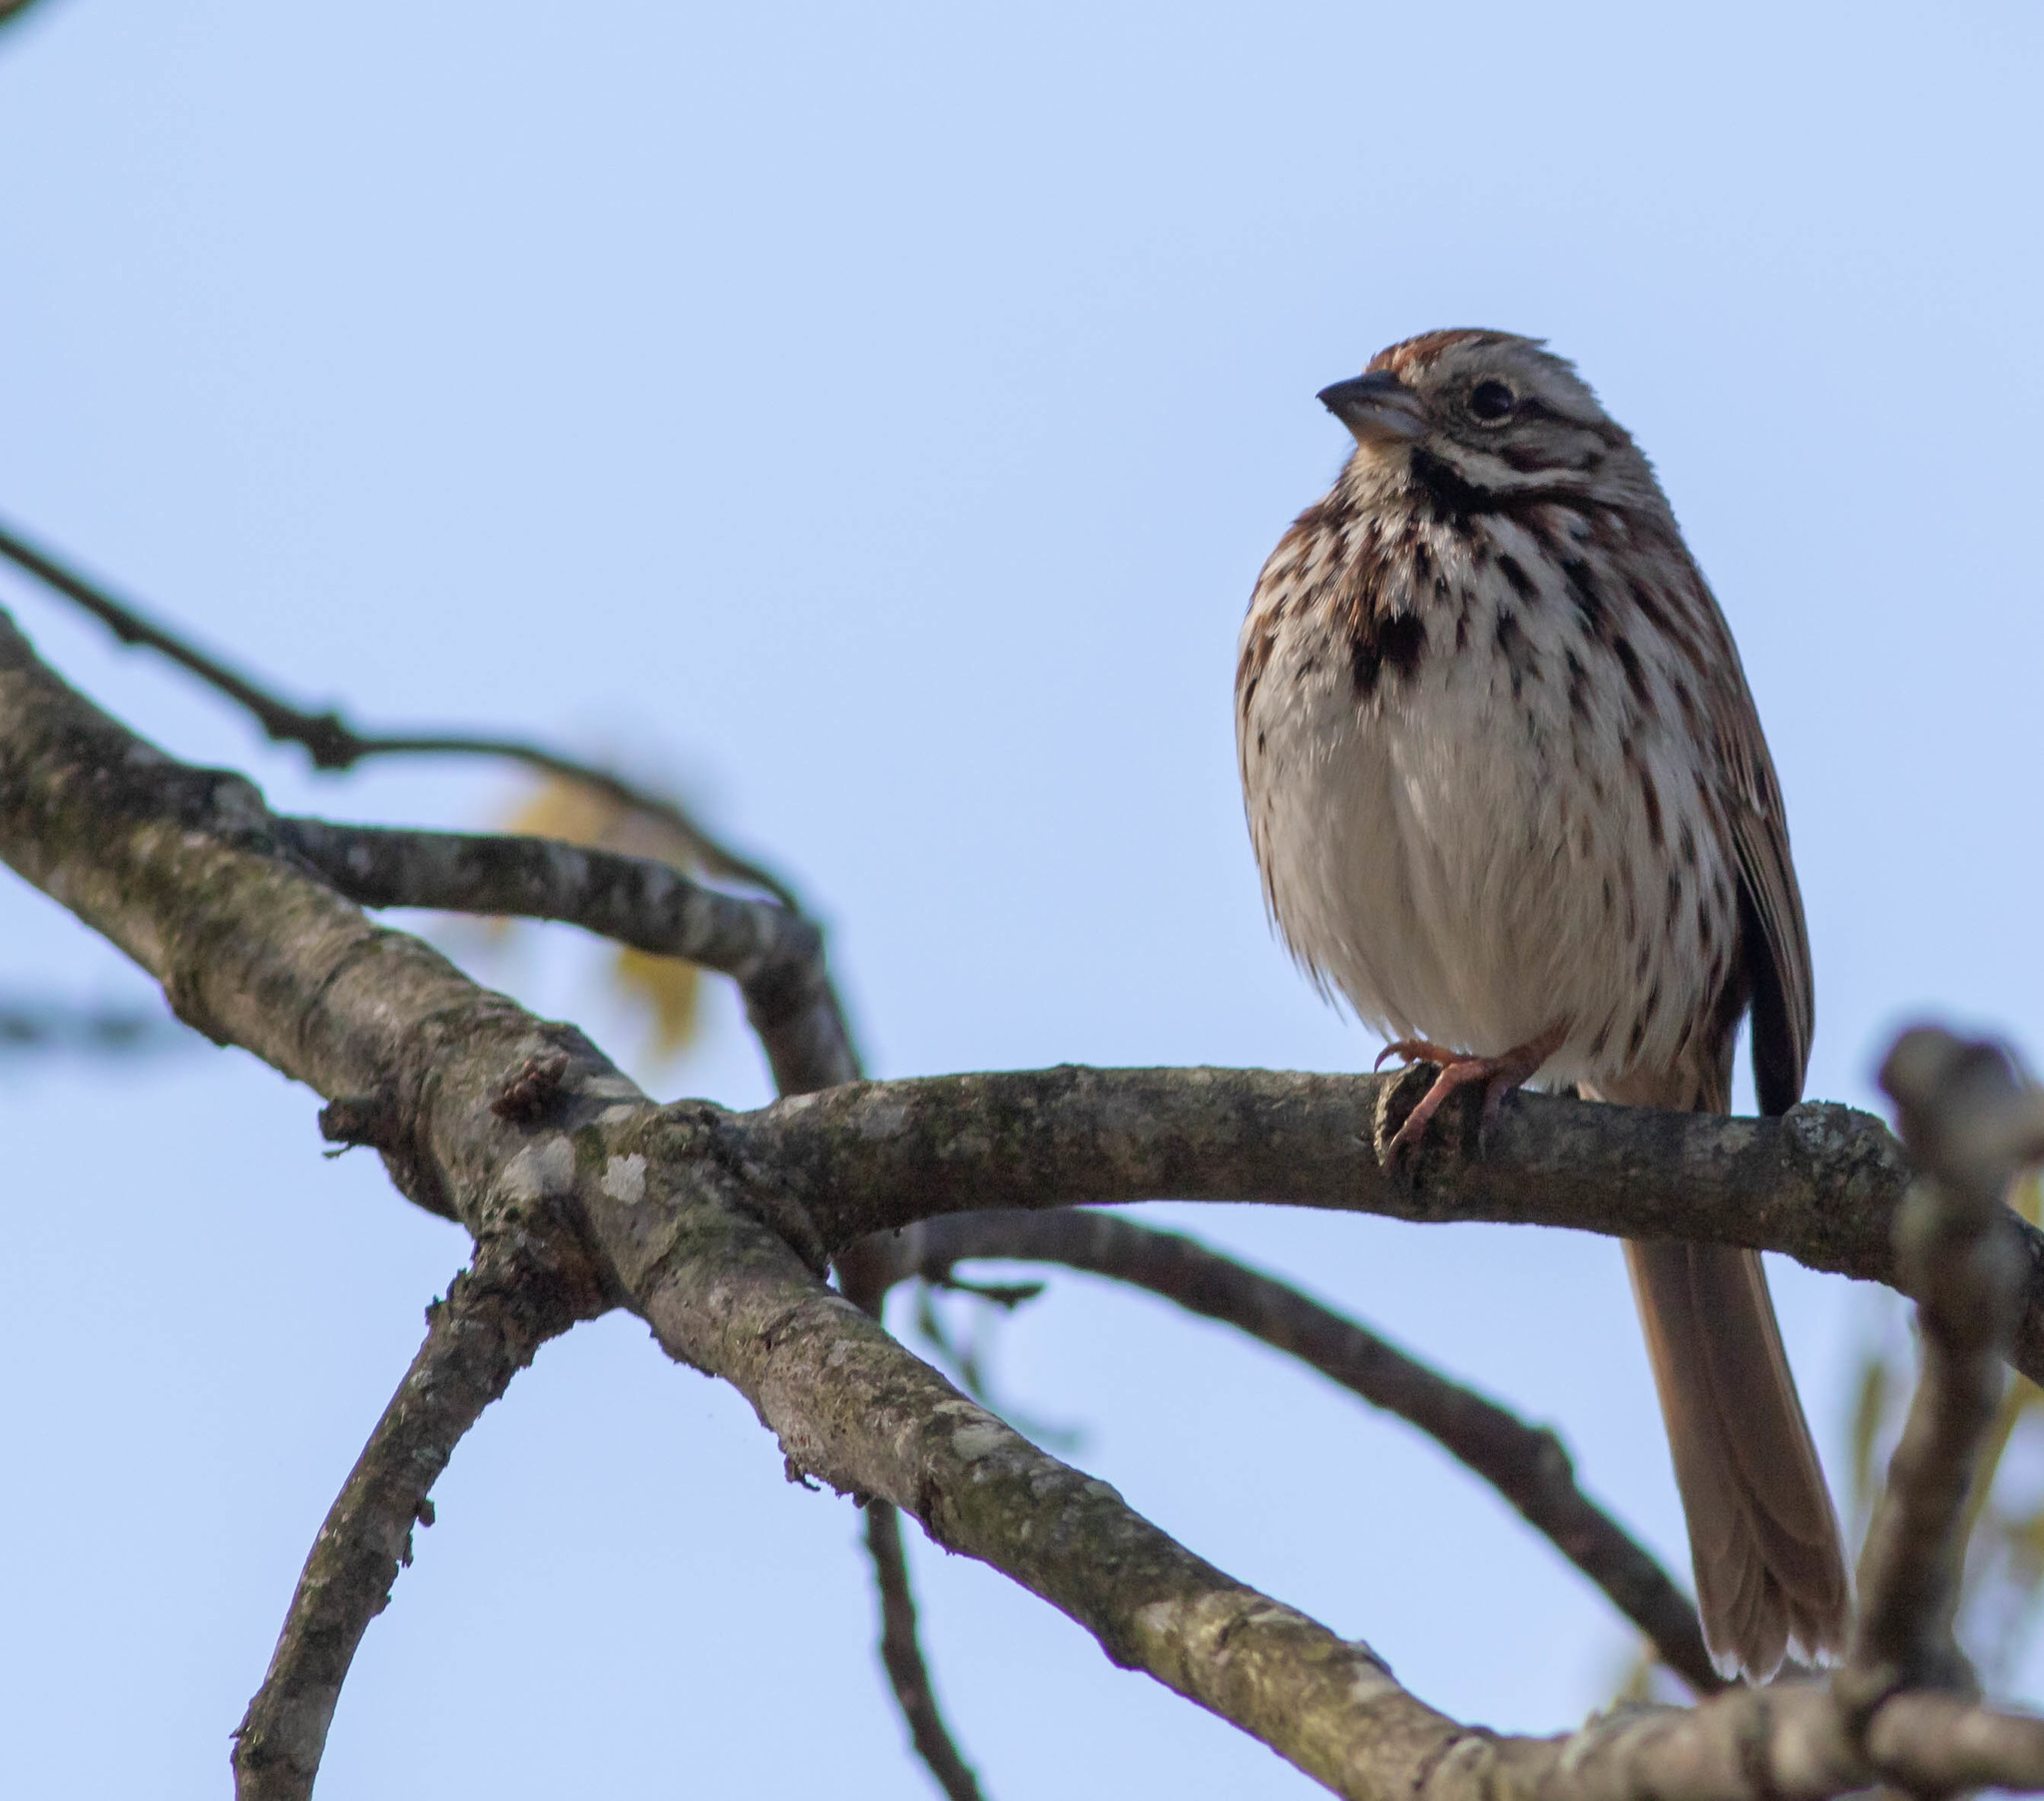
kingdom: Animalia
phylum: Chordata
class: Aves
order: Passeriformes
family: Passerellidae
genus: Melospiza
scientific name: Melospiza melodia
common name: Song sparrow
